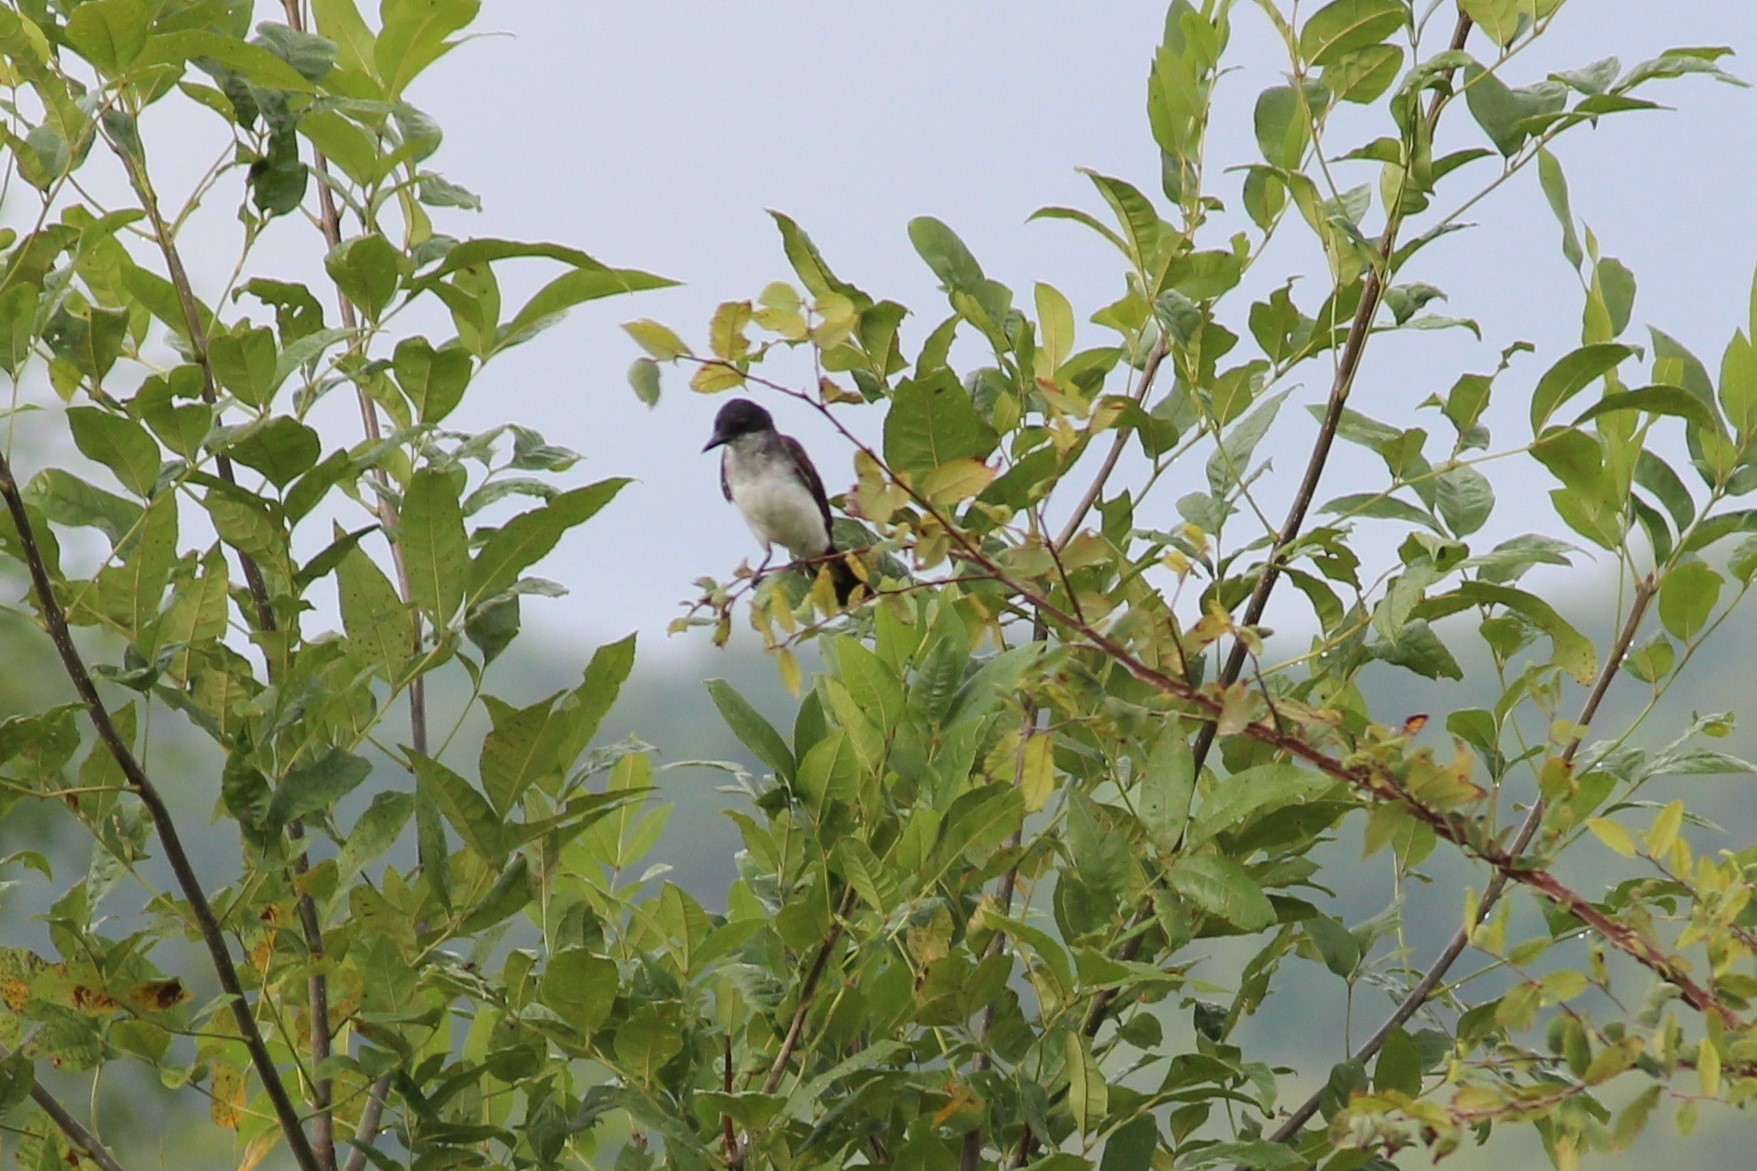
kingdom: Animalia
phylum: Chordata
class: Aves
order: Passeriformes
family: Tyrannidae
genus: Tyrannus
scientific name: Tyrannus tyrannus
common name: Eastern kingbird
